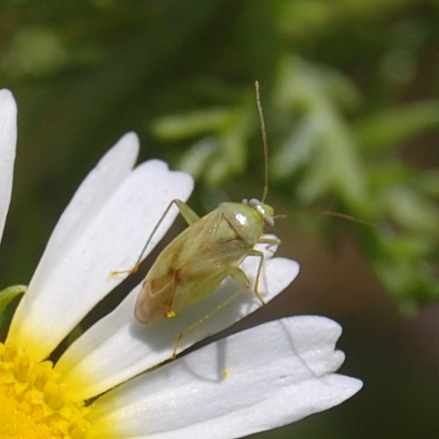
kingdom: Animalia
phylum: Arthropoda
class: Insecta
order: Hemiptera
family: Miridae
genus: Taylorilygus
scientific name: Taylorilygus apicalis
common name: Plant bug
